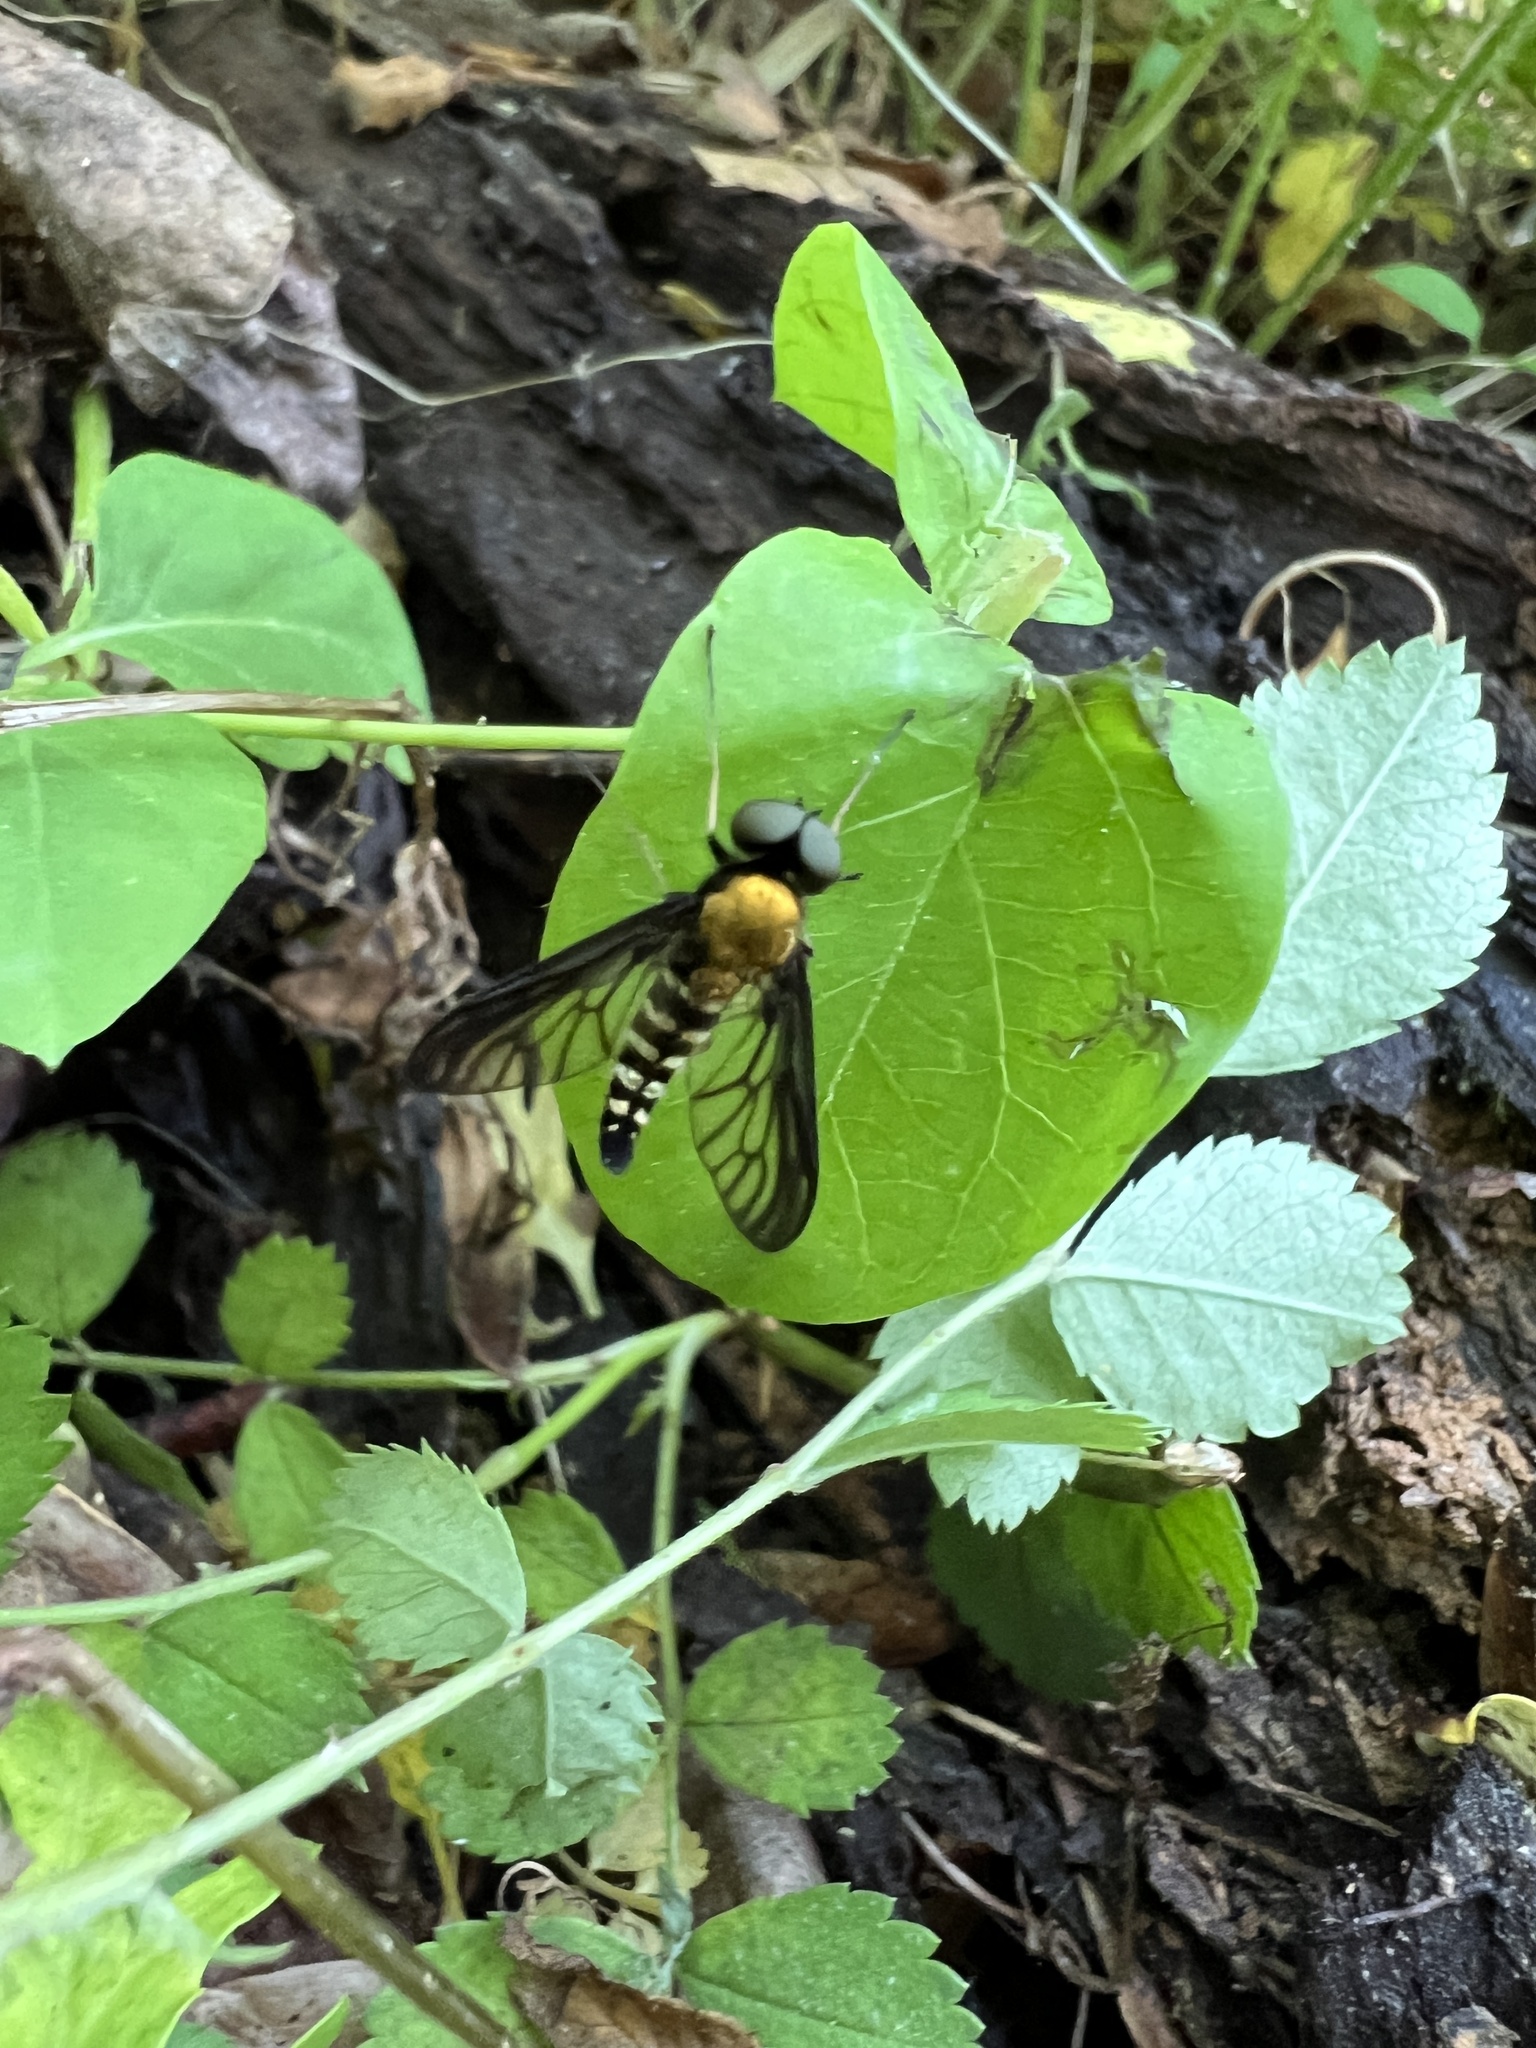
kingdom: Animalia
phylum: Arthropoda
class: Insecta
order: Diptera
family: Rhagionidae
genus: Chrysopilus
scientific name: Chrysopilus thoracicus
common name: Golden-backed snipe fly
